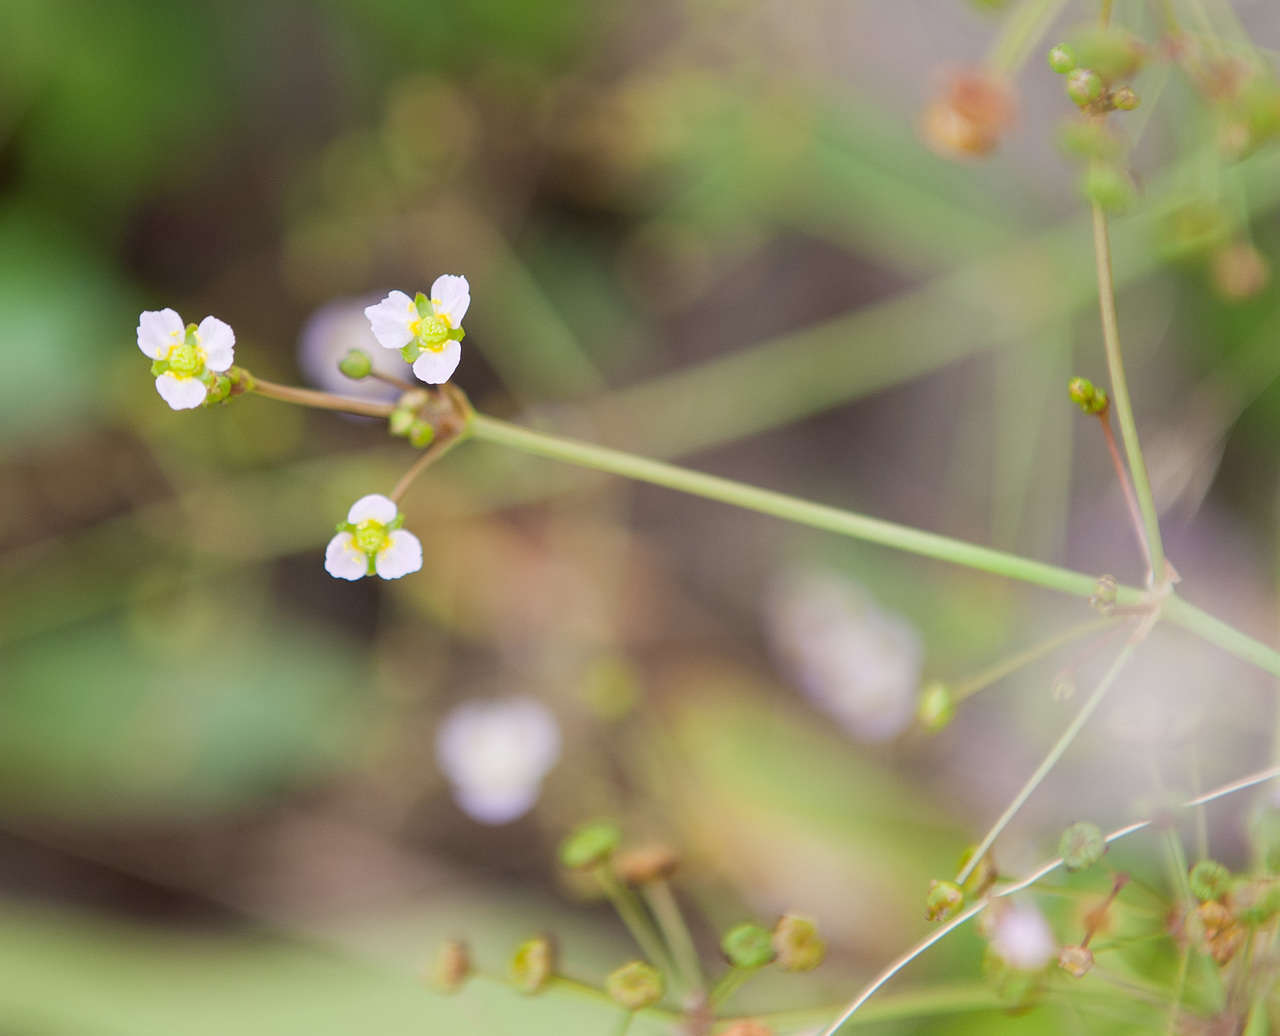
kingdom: Plantae
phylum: Tracheophyta
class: Liliopsida
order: Alismatales
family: Alismataceae
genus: Alisma
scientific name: Alisma lanceolatum
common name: Narrow-leaved water-plantain
